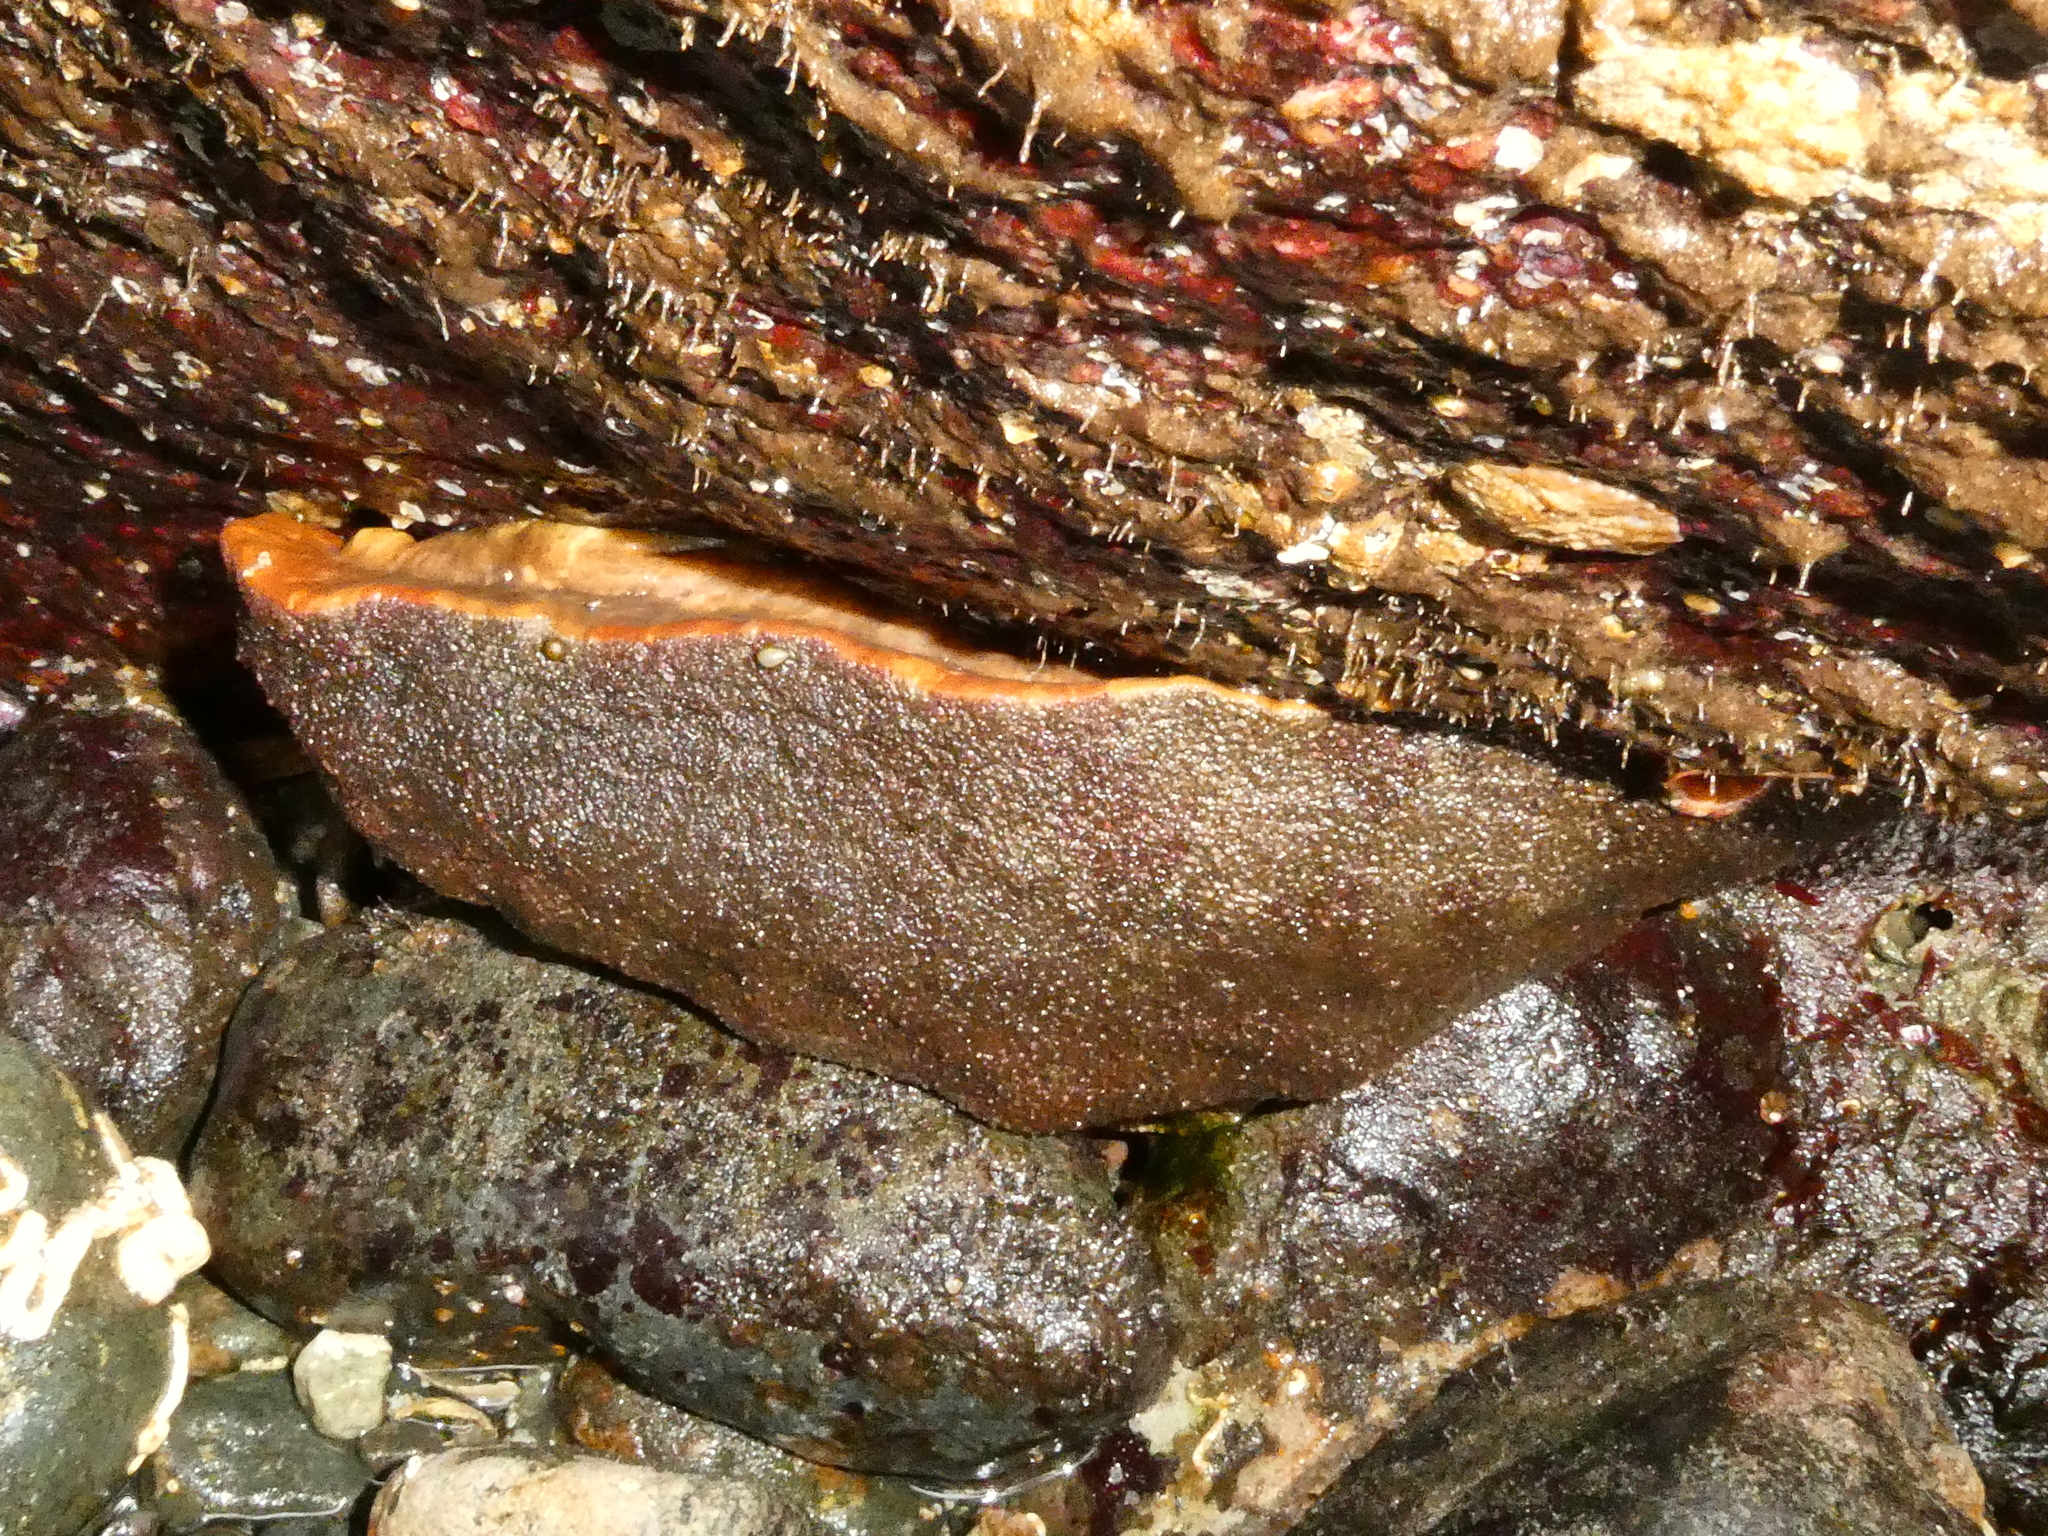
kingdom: Animalia
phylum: Mollusca
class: Polyplacophora
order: Chitonida
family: Acanthochitonidae
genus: Cryptochiton
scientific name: Cryptochiton stelleri
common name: Giant pacific chiton
